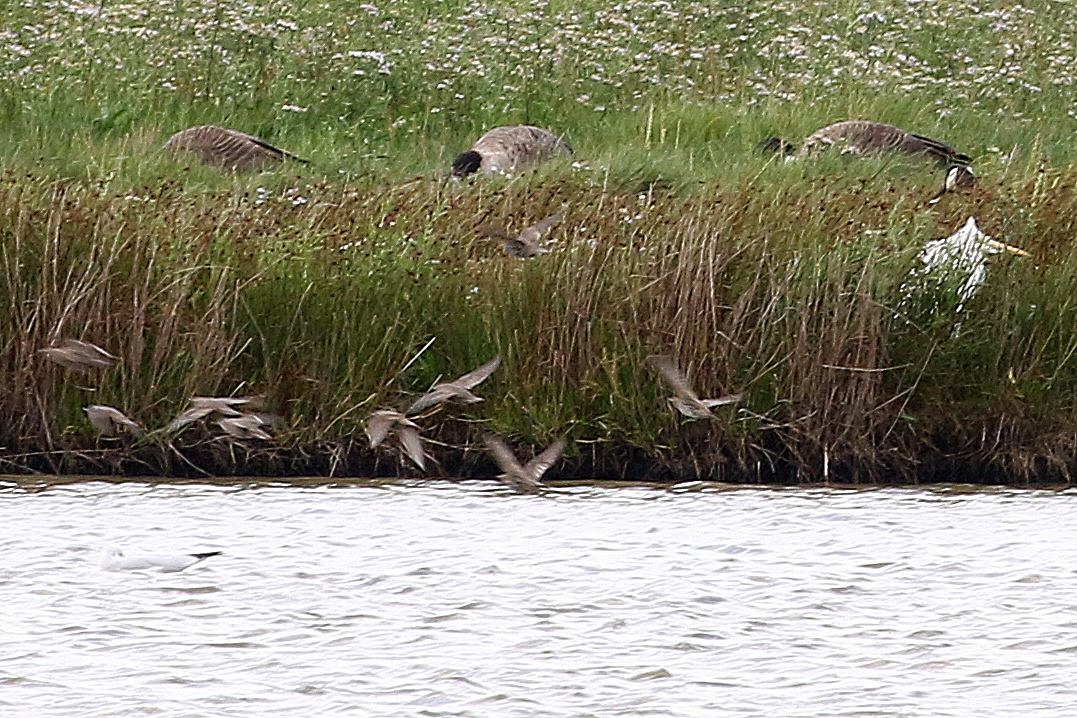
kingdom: Animalia
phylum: Chordata
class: Aves
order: Passeriformes
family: Sturnidae
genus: Sturnus
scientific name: Sturnus vulgaris
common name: Common starling
